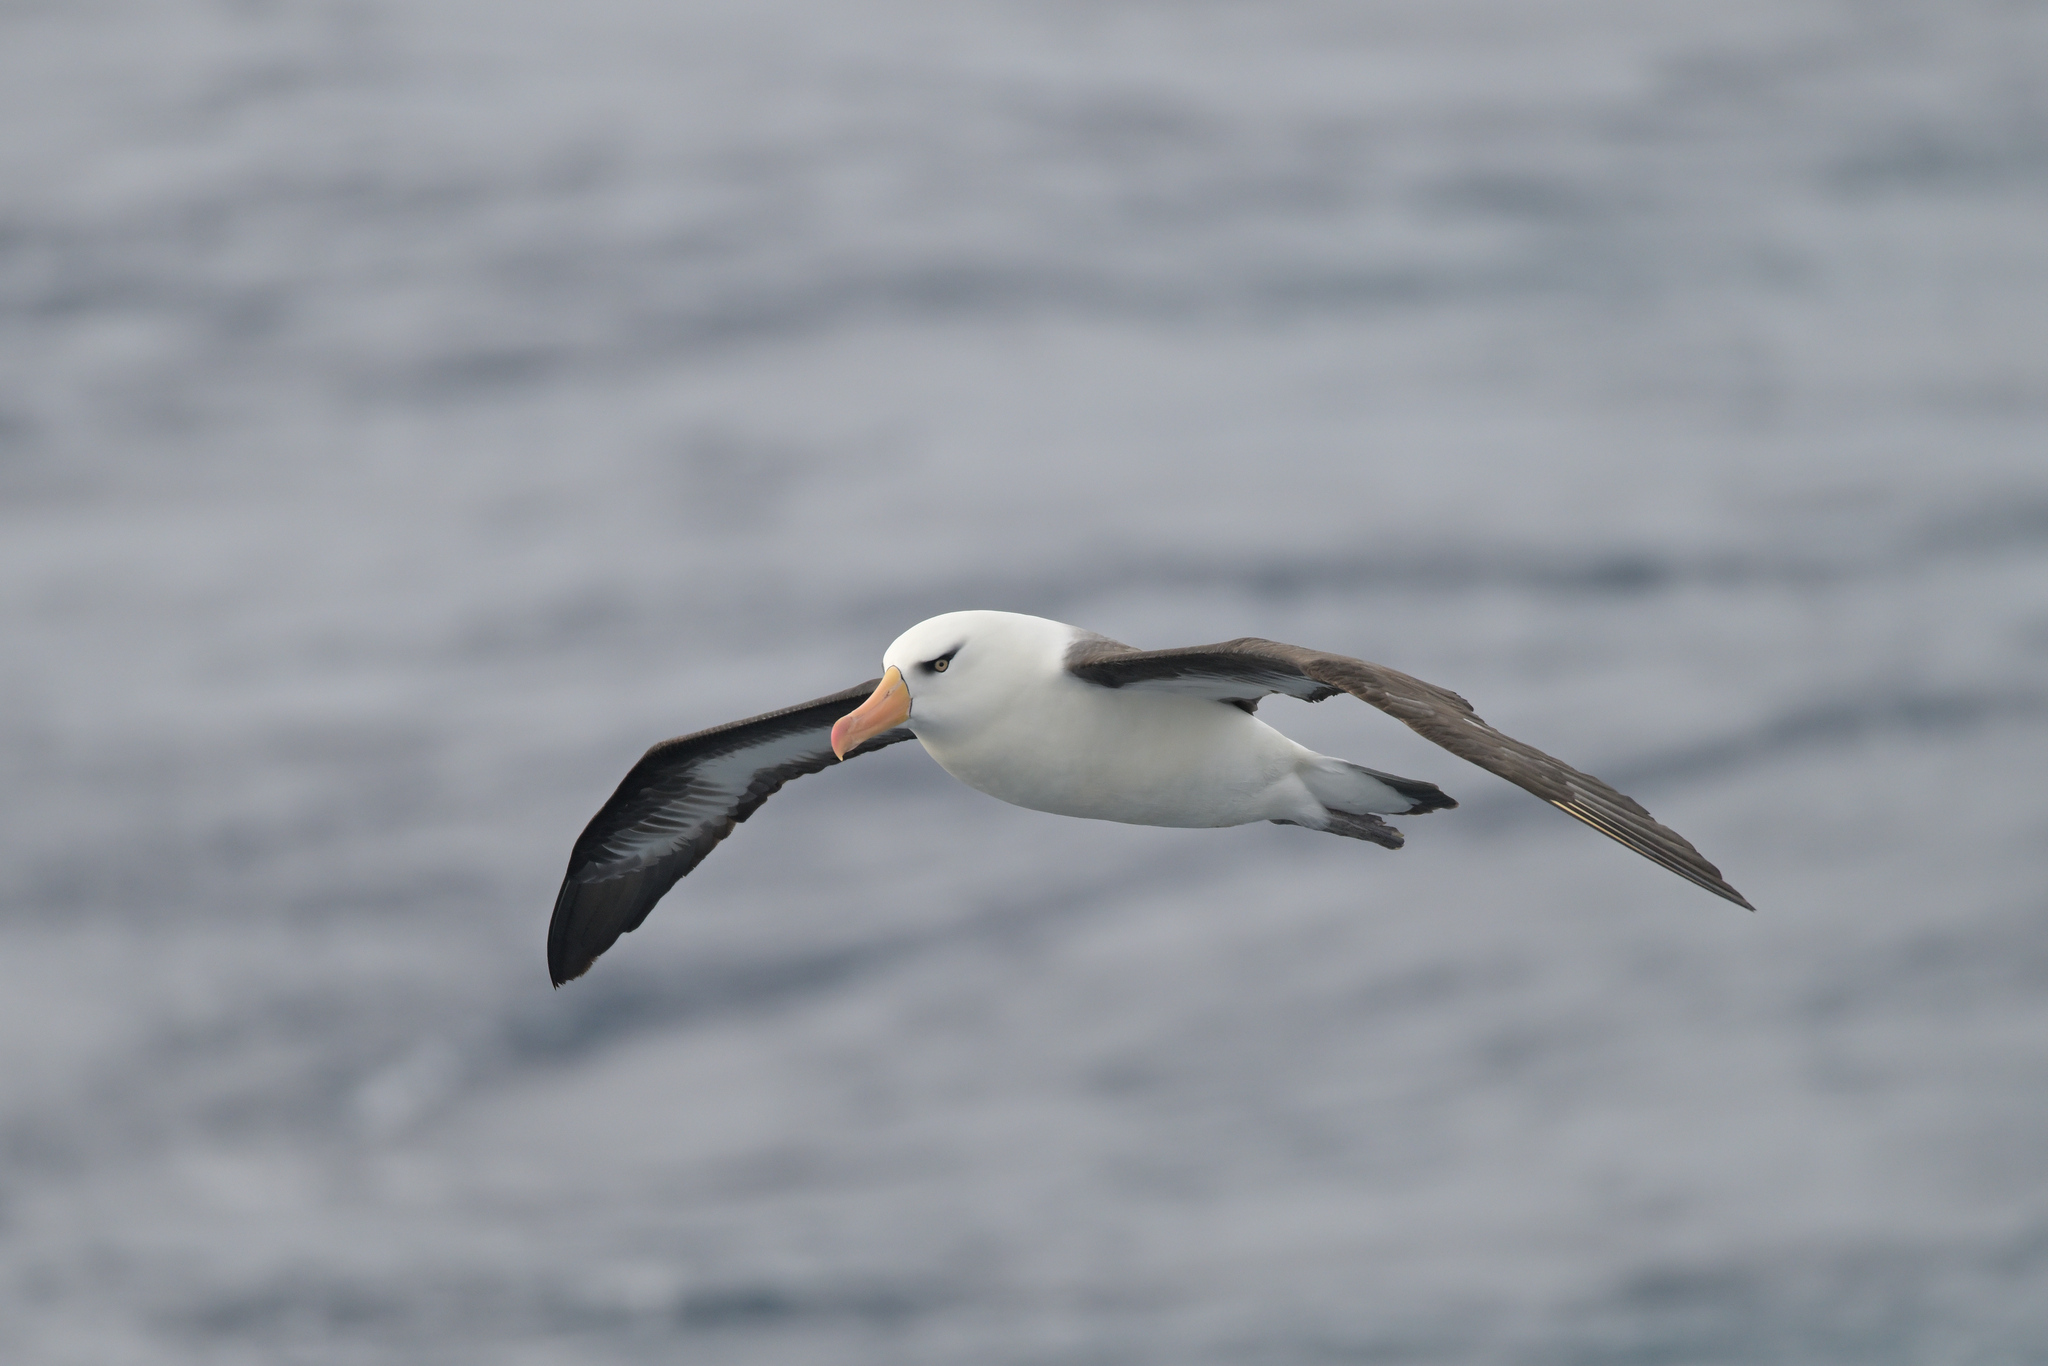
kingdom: Animalia
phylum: Chordata
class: Aves
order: Procellariiformes
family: Diomedeidae
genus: Thalassarche
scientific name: Thalassarche impavida
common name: Campbell albatross
